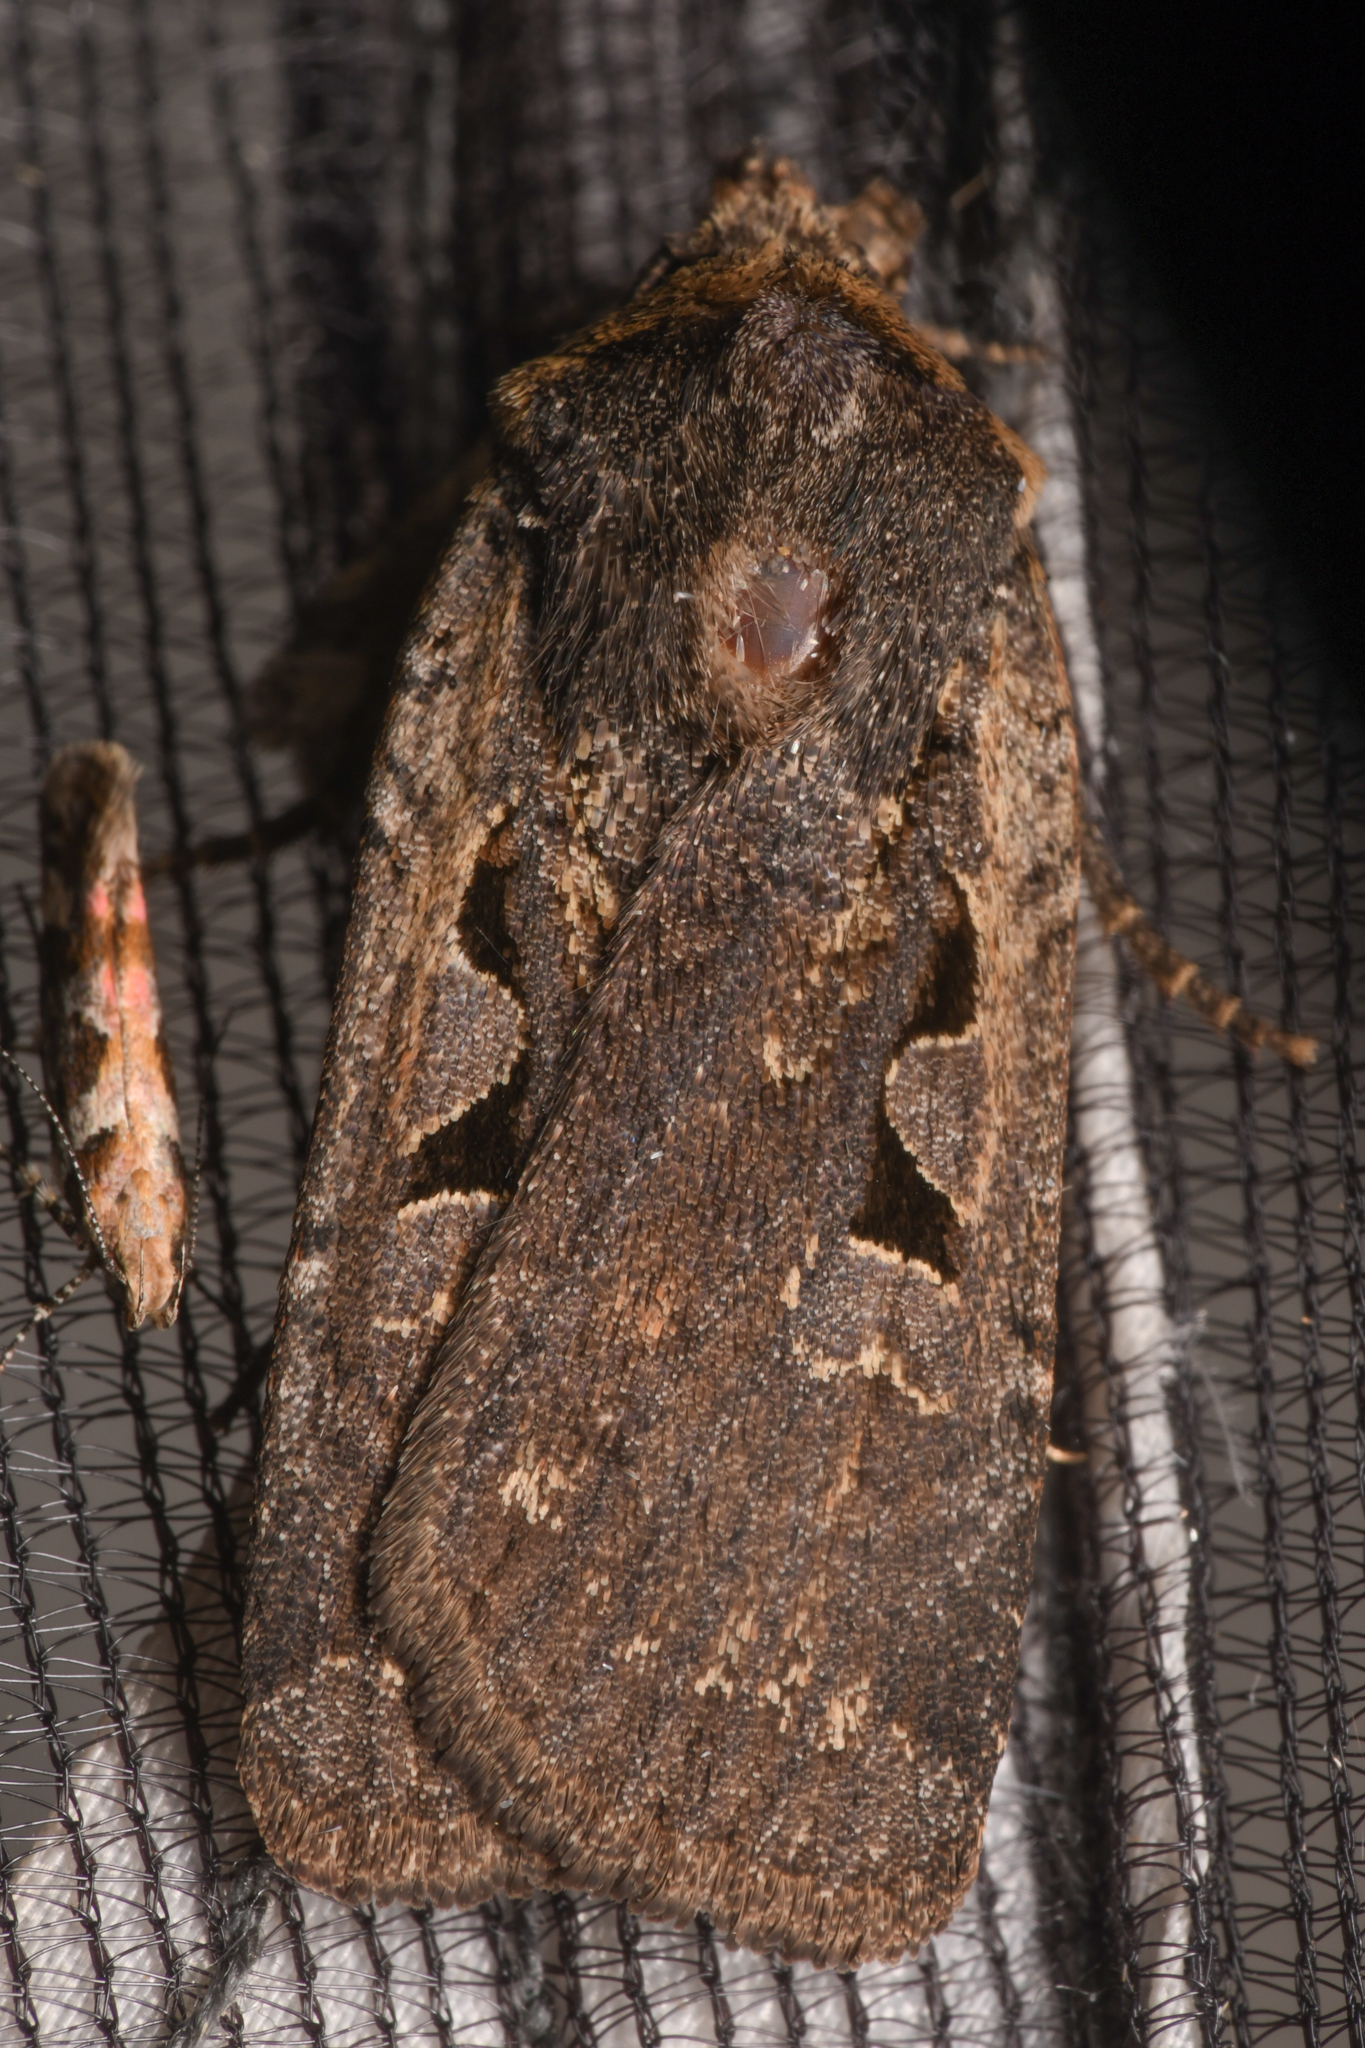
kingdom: Animalia
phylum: Arthropoda
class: Insecta
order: Lepidoptera
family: Noctuidae
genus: Parabagrotis
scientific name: Parabagrotis insularis
